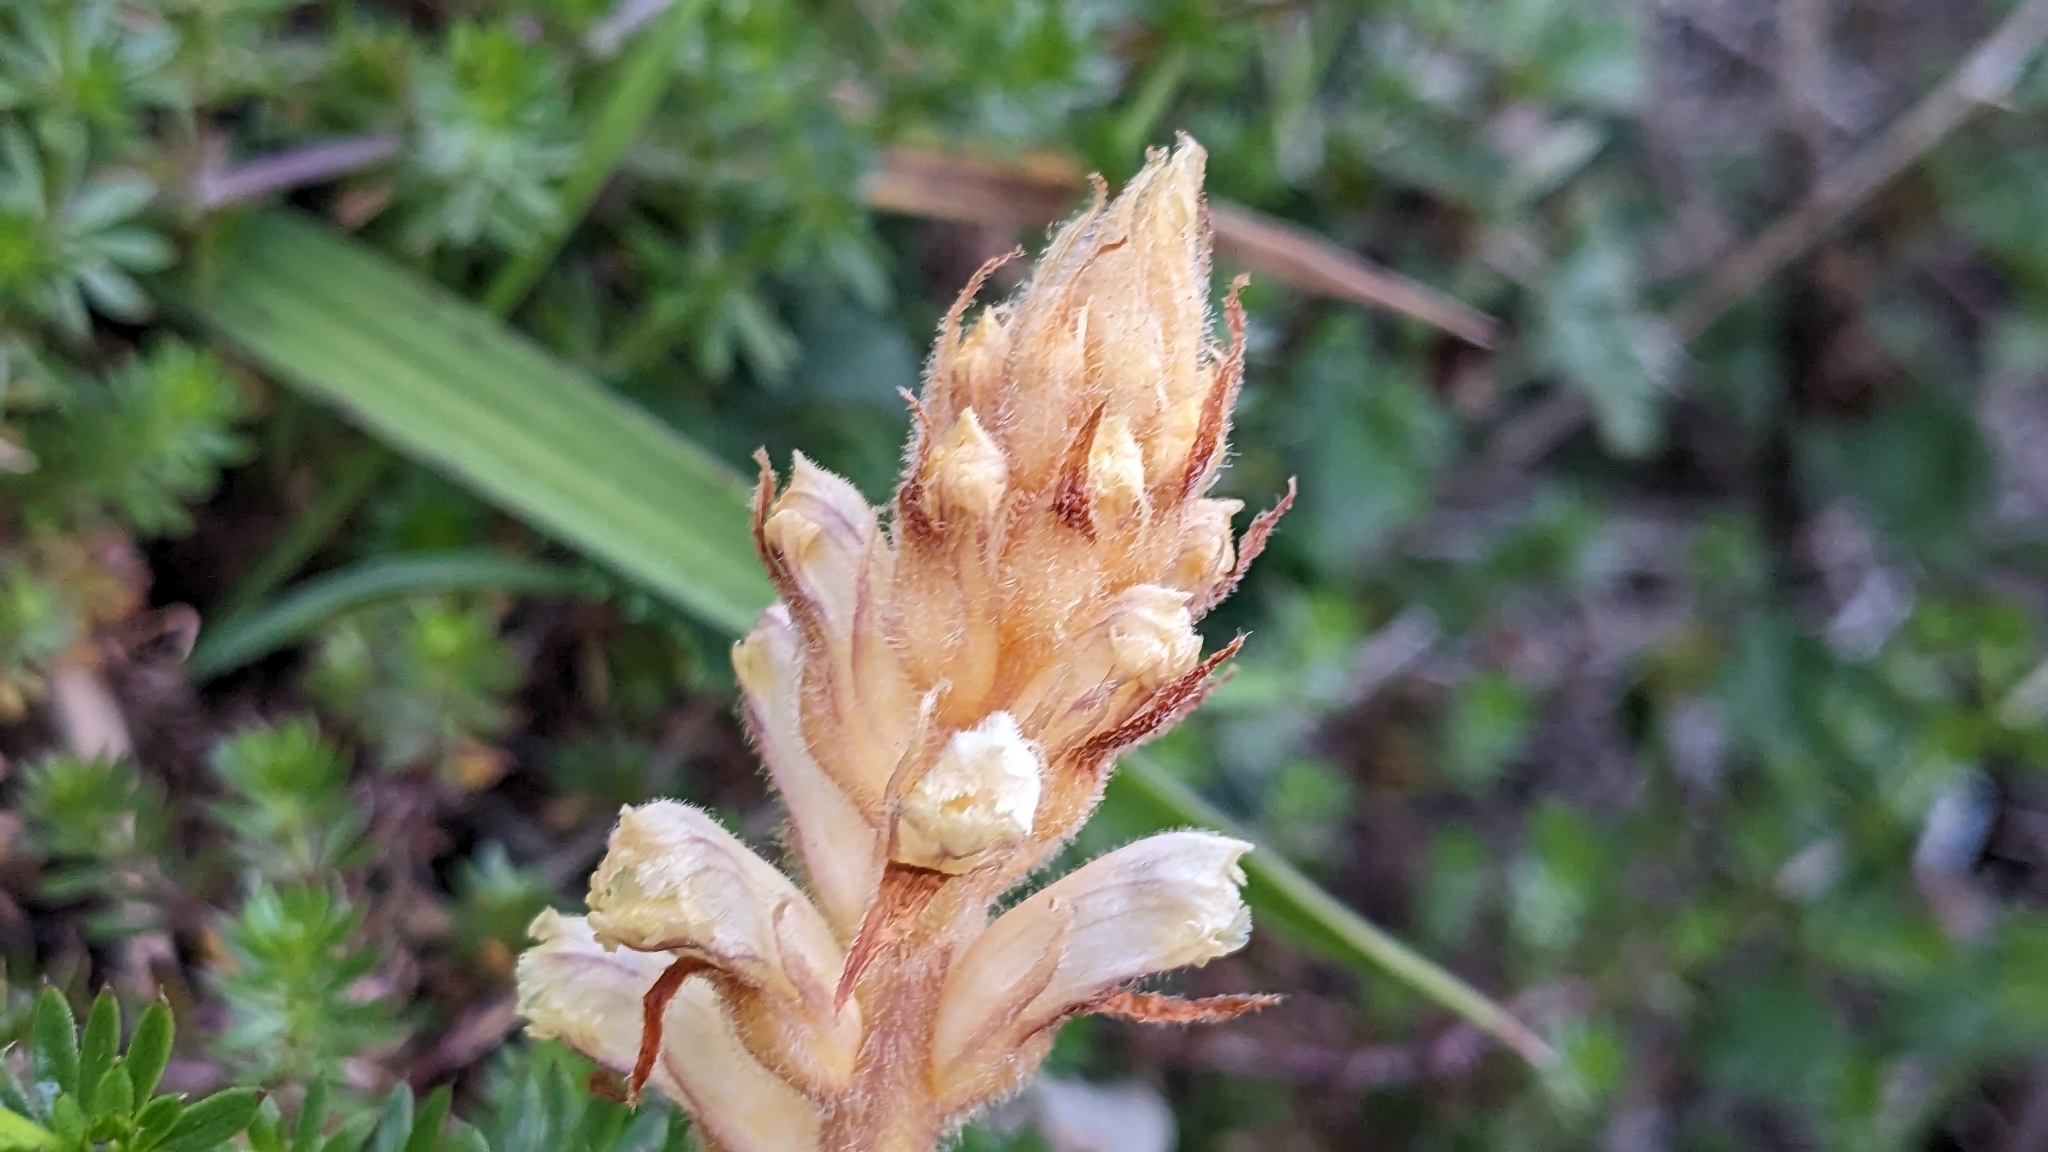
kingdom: Plantae
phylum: Tracheophyta
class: Magnoliopsida
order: Lamiales
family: Orobanchaceae
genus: Orobanche
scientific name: Orobanche minor
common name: Common broomrape
